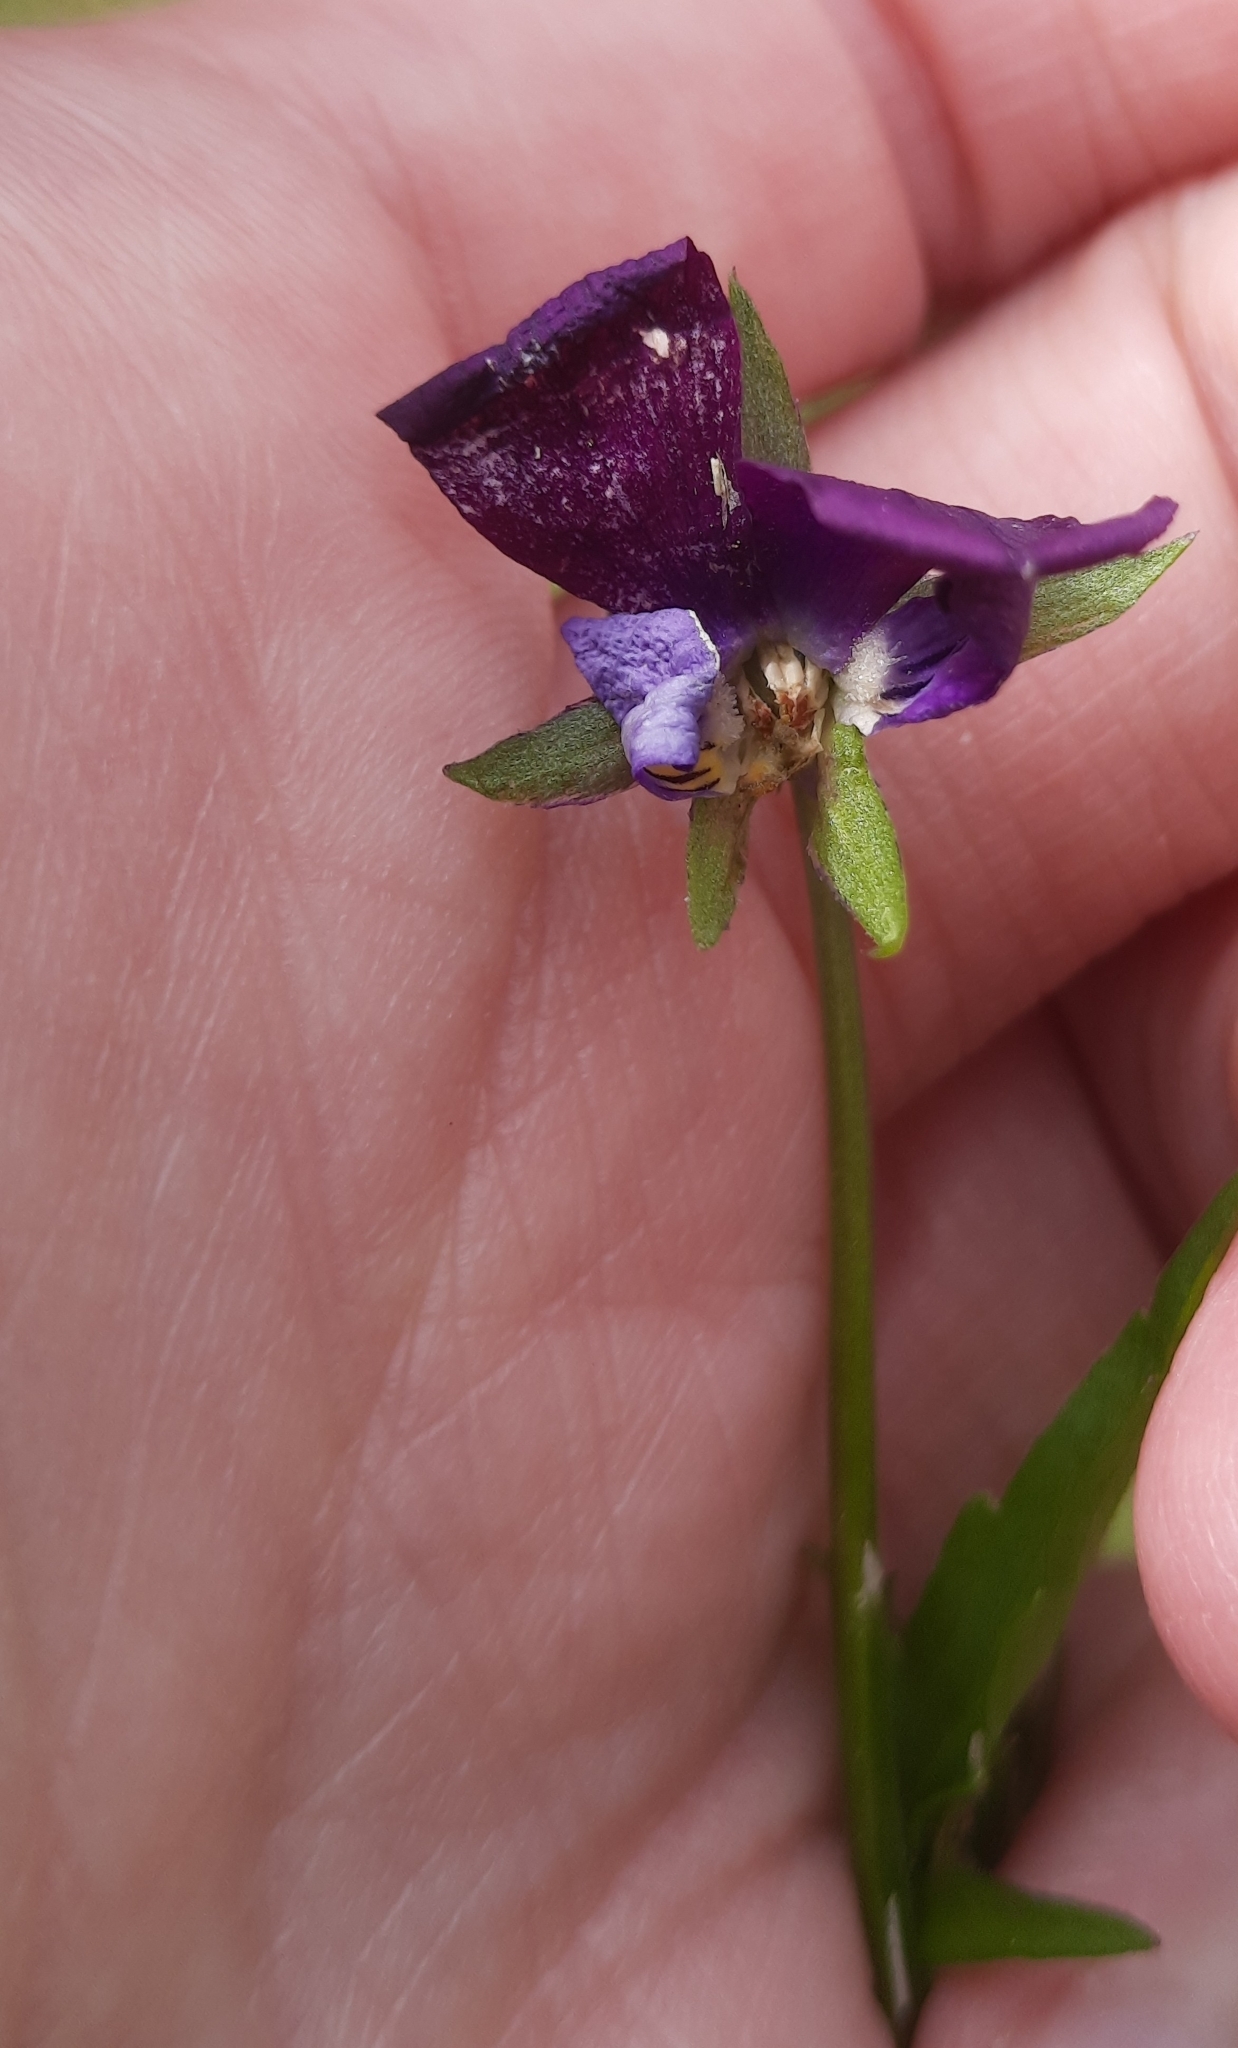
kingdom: Plantae
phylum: Tracheophyta
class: Magnoliopsida
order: Malpighiales
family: Violaceae
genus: Viola
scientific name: Viola tricolor
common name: Pansy
